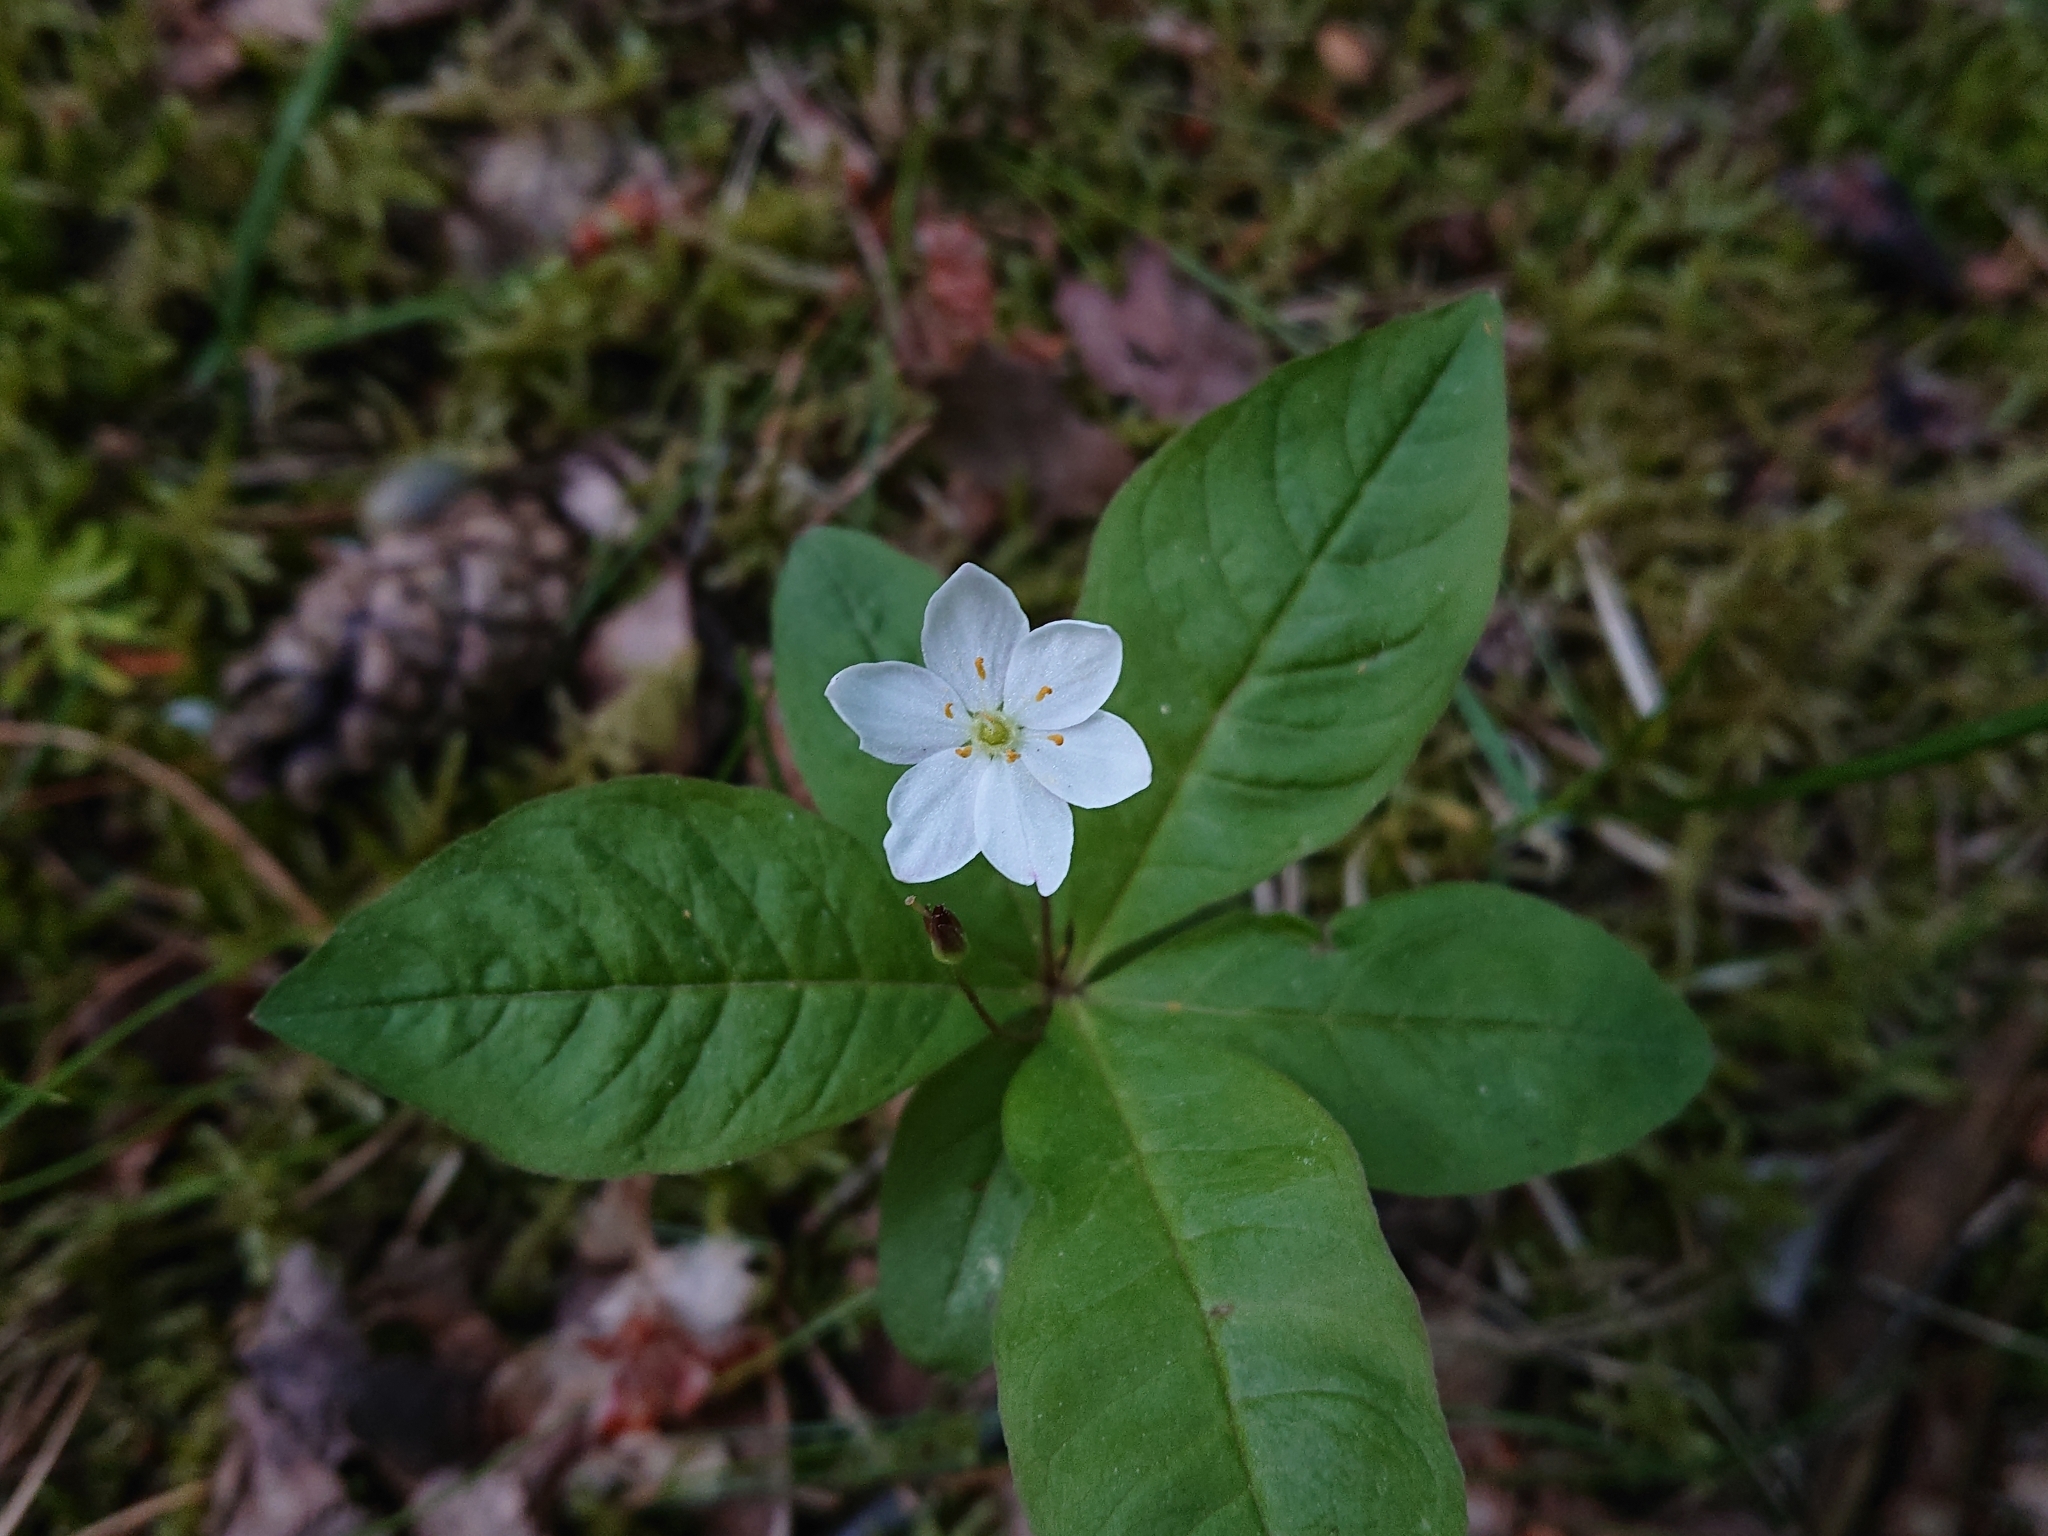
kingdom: Plantae
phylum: Tracheophyta
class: Magnoliopsida
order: Ericales
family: Primulaceae
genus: Lysimachia
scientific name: Lysimachia europaea
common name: Arctic starflower
